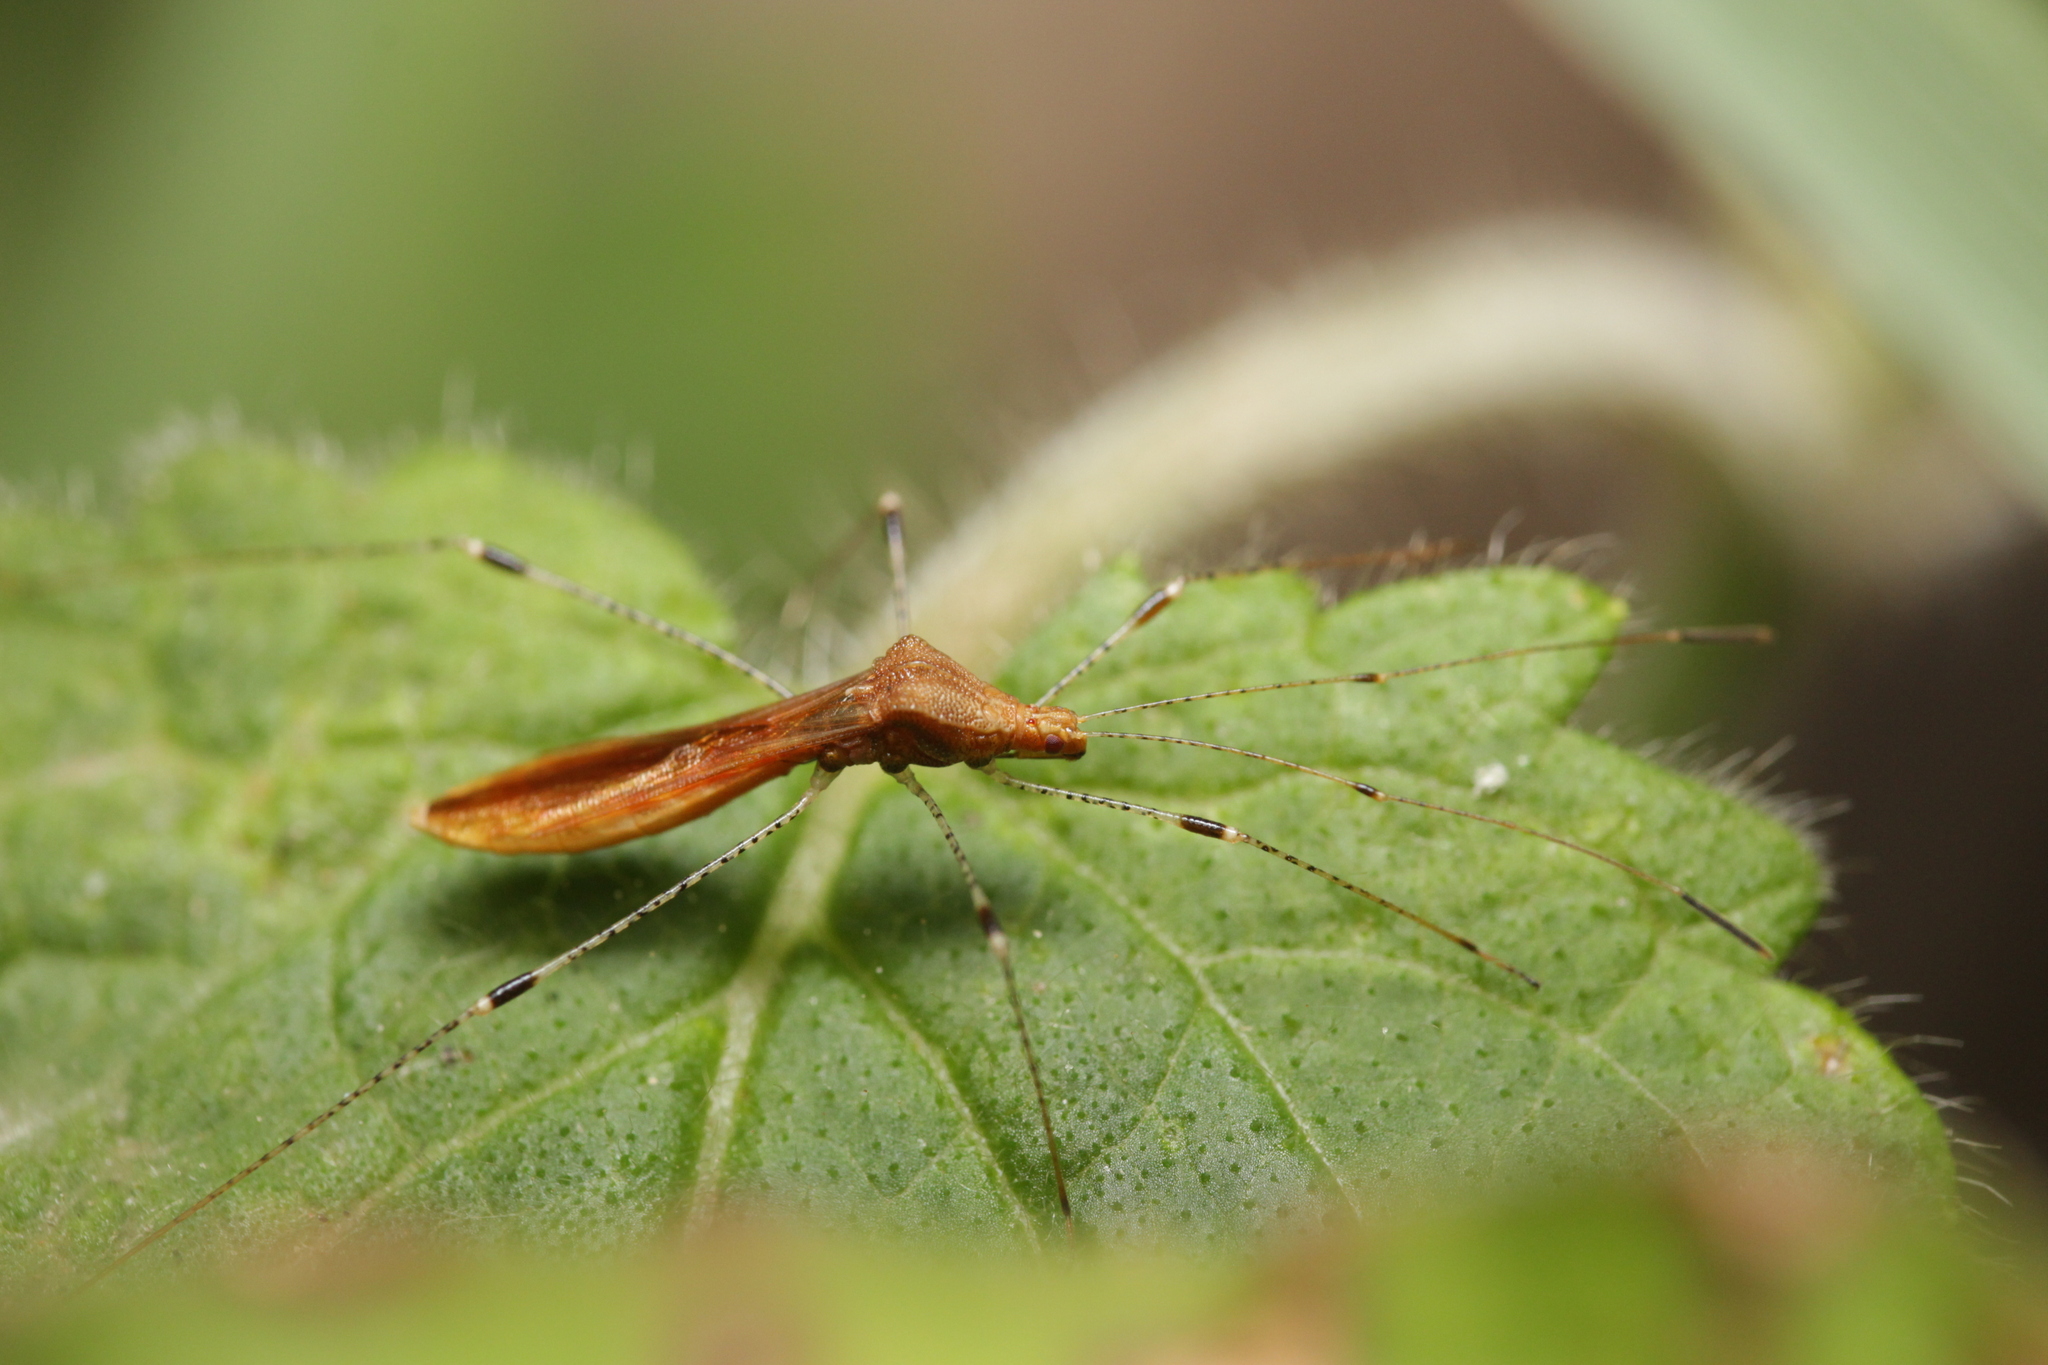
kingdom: Animalia
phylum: Arthropoda
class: Insecta
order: Hemiptera
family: Berytidae
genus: Metatropis
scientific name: Metatropis rufescens
